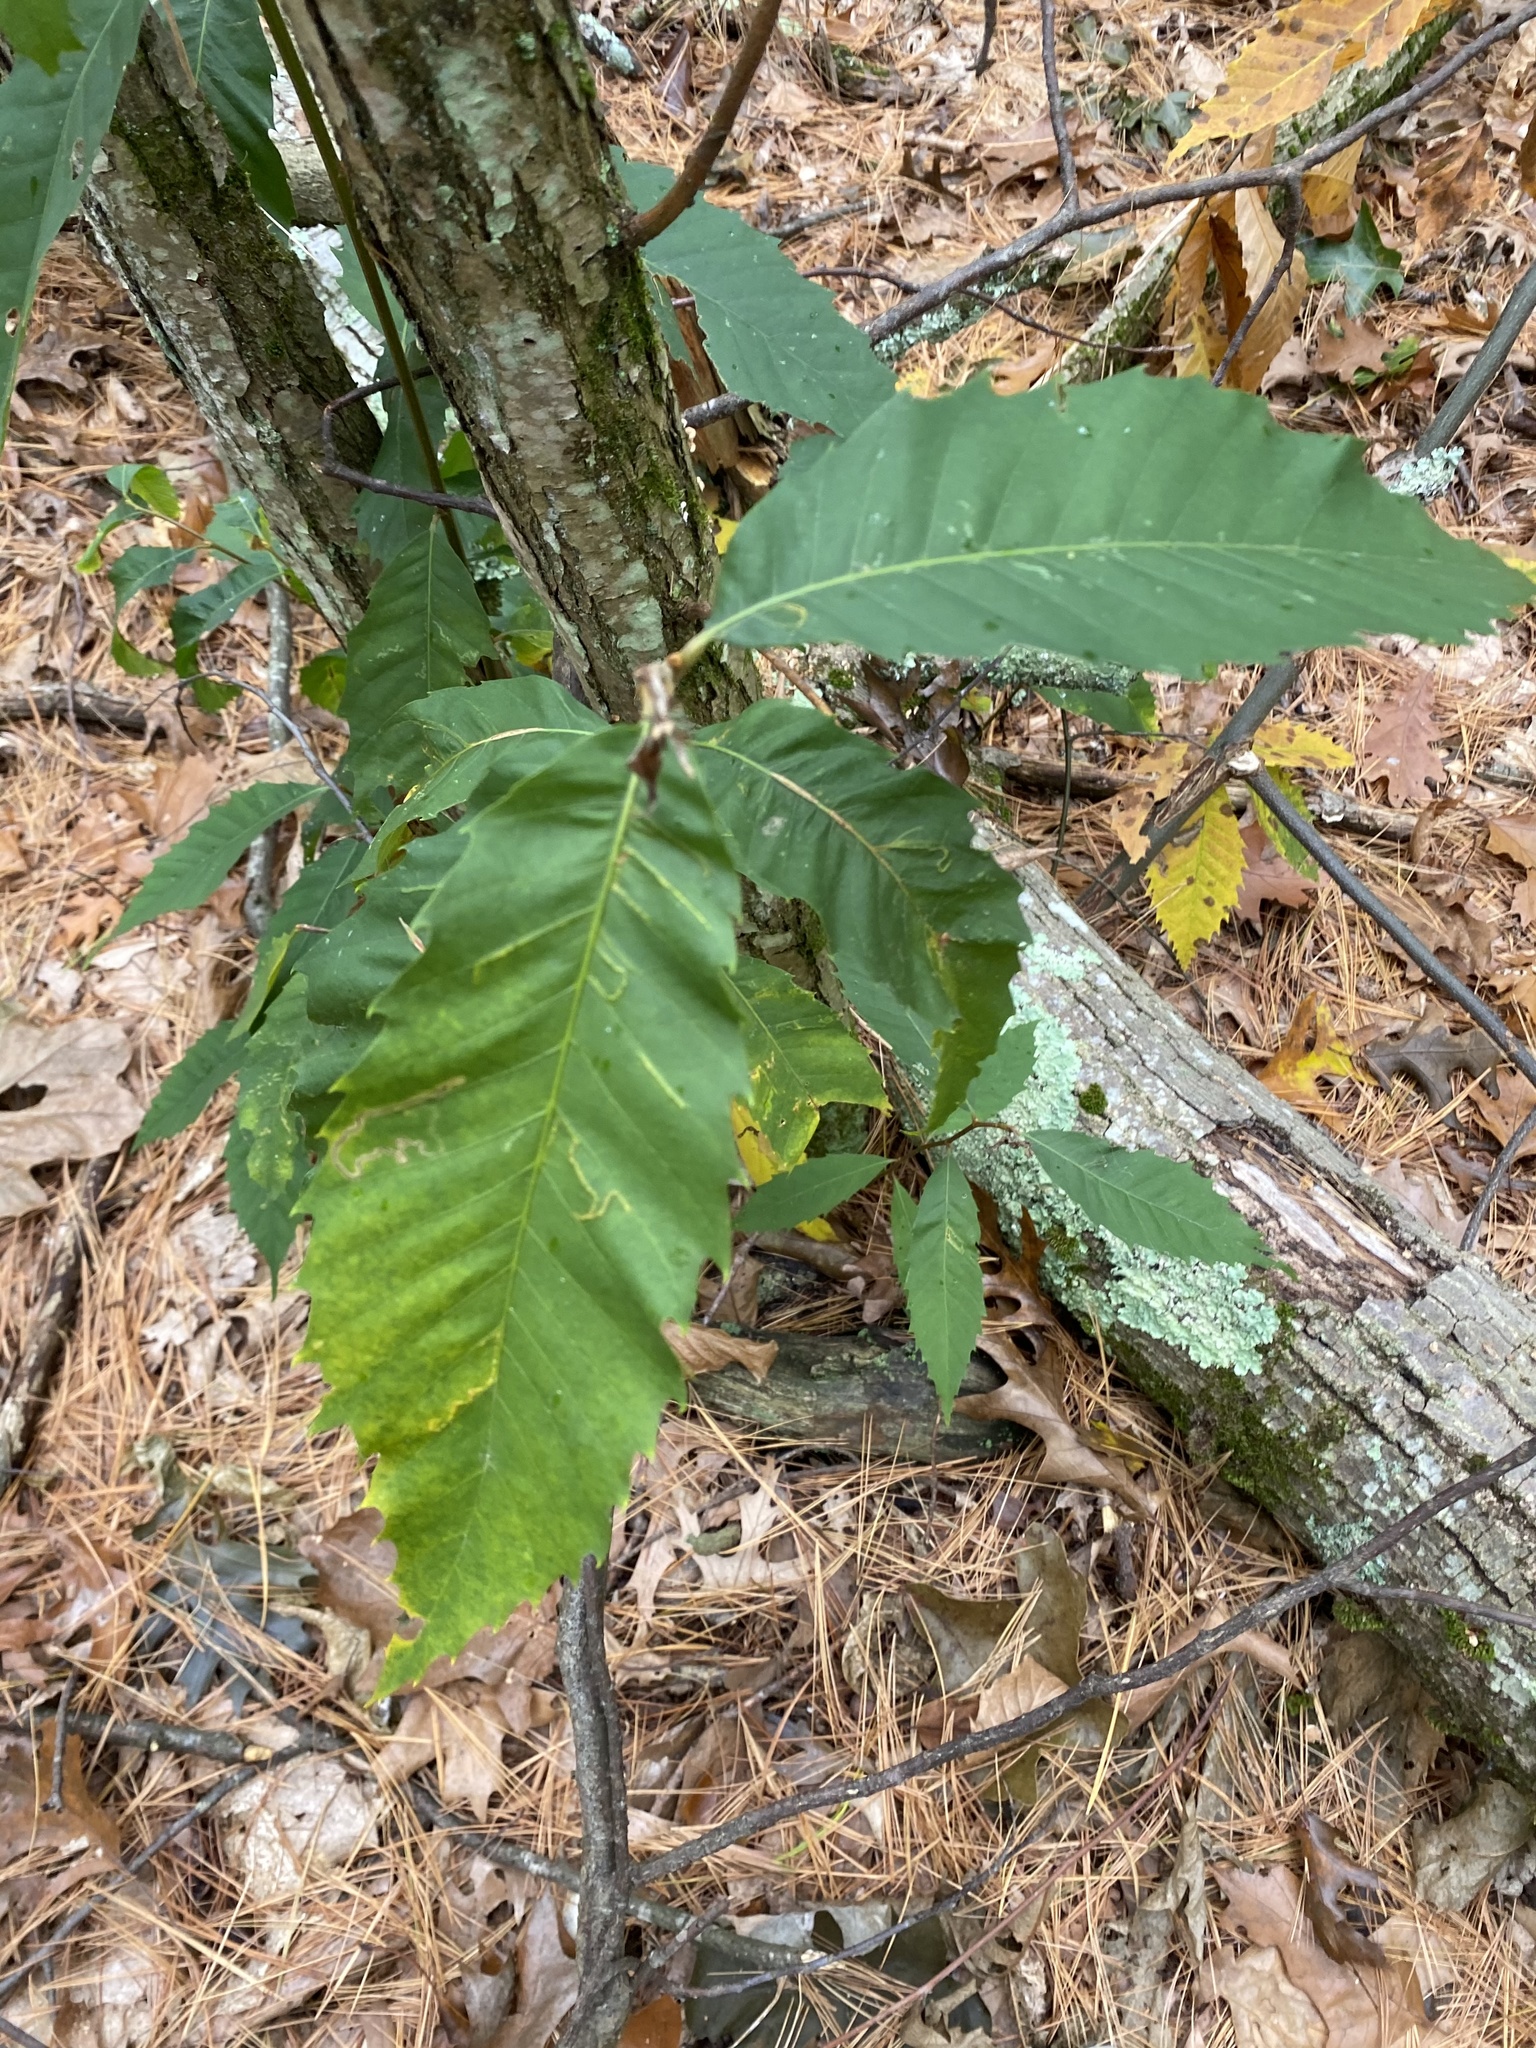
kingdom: Plantae
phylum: Tracheophyta
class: Magnoliopsida
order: Fagales
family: Fagaceae
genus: Castanea
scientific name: Castanea dentata
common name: American chestnut
